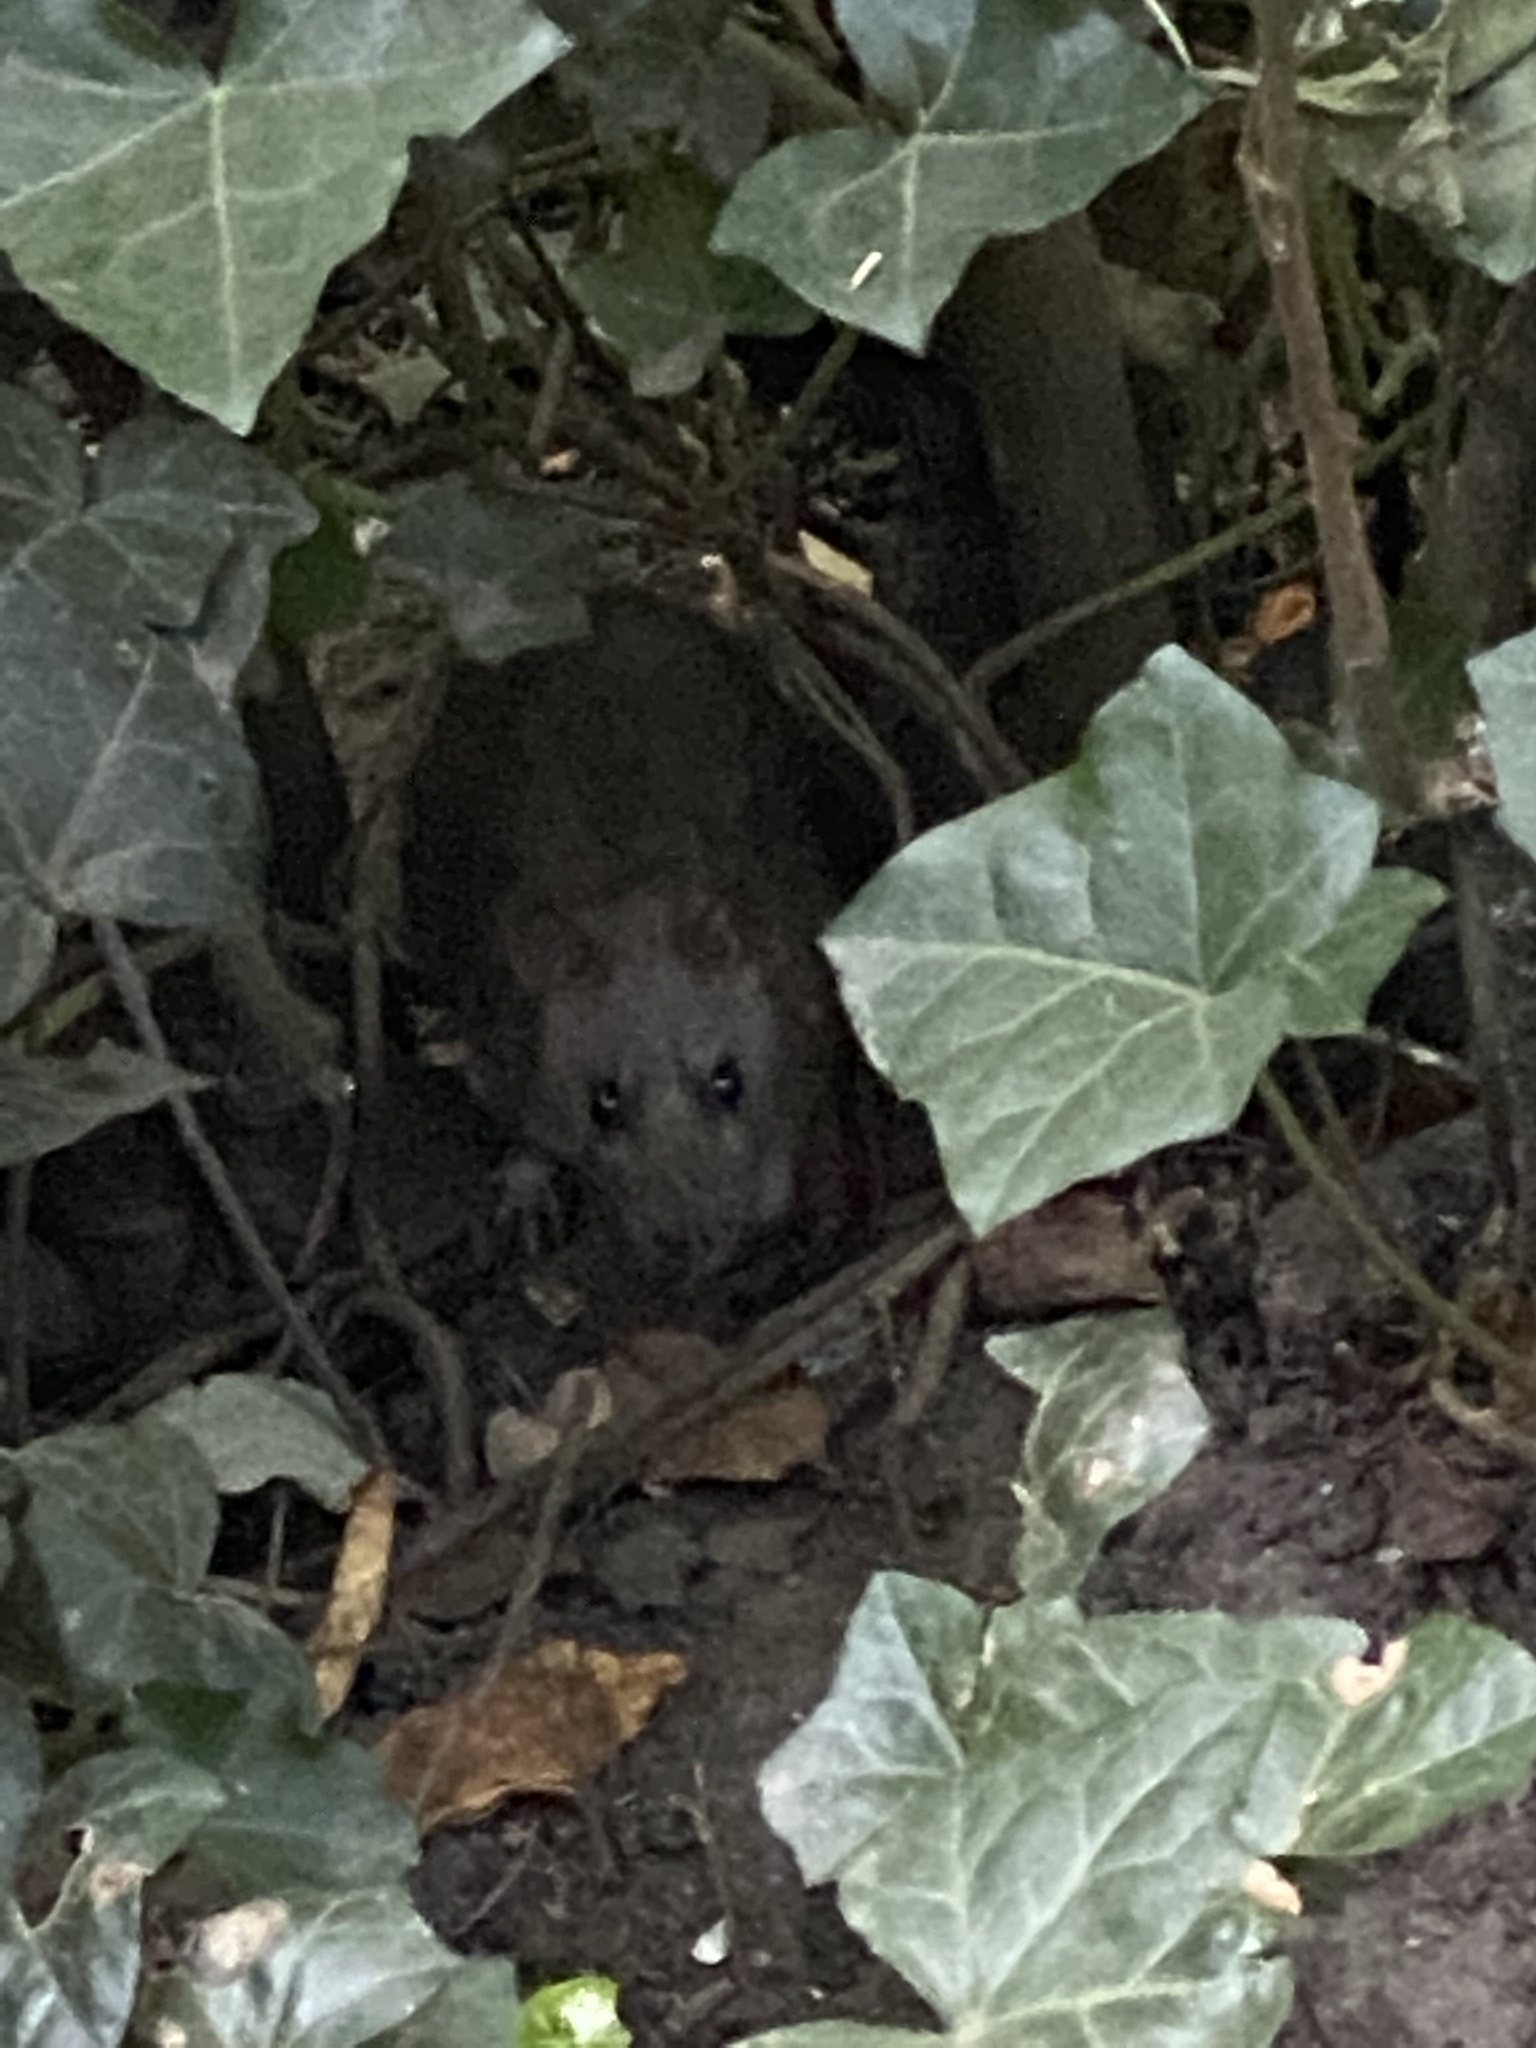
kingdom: Animalia
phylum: Chordata
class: Mammalia
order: Rodentia
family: Muridae
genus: Rattus
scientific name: Rattus norvegicus
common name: Brown rat
